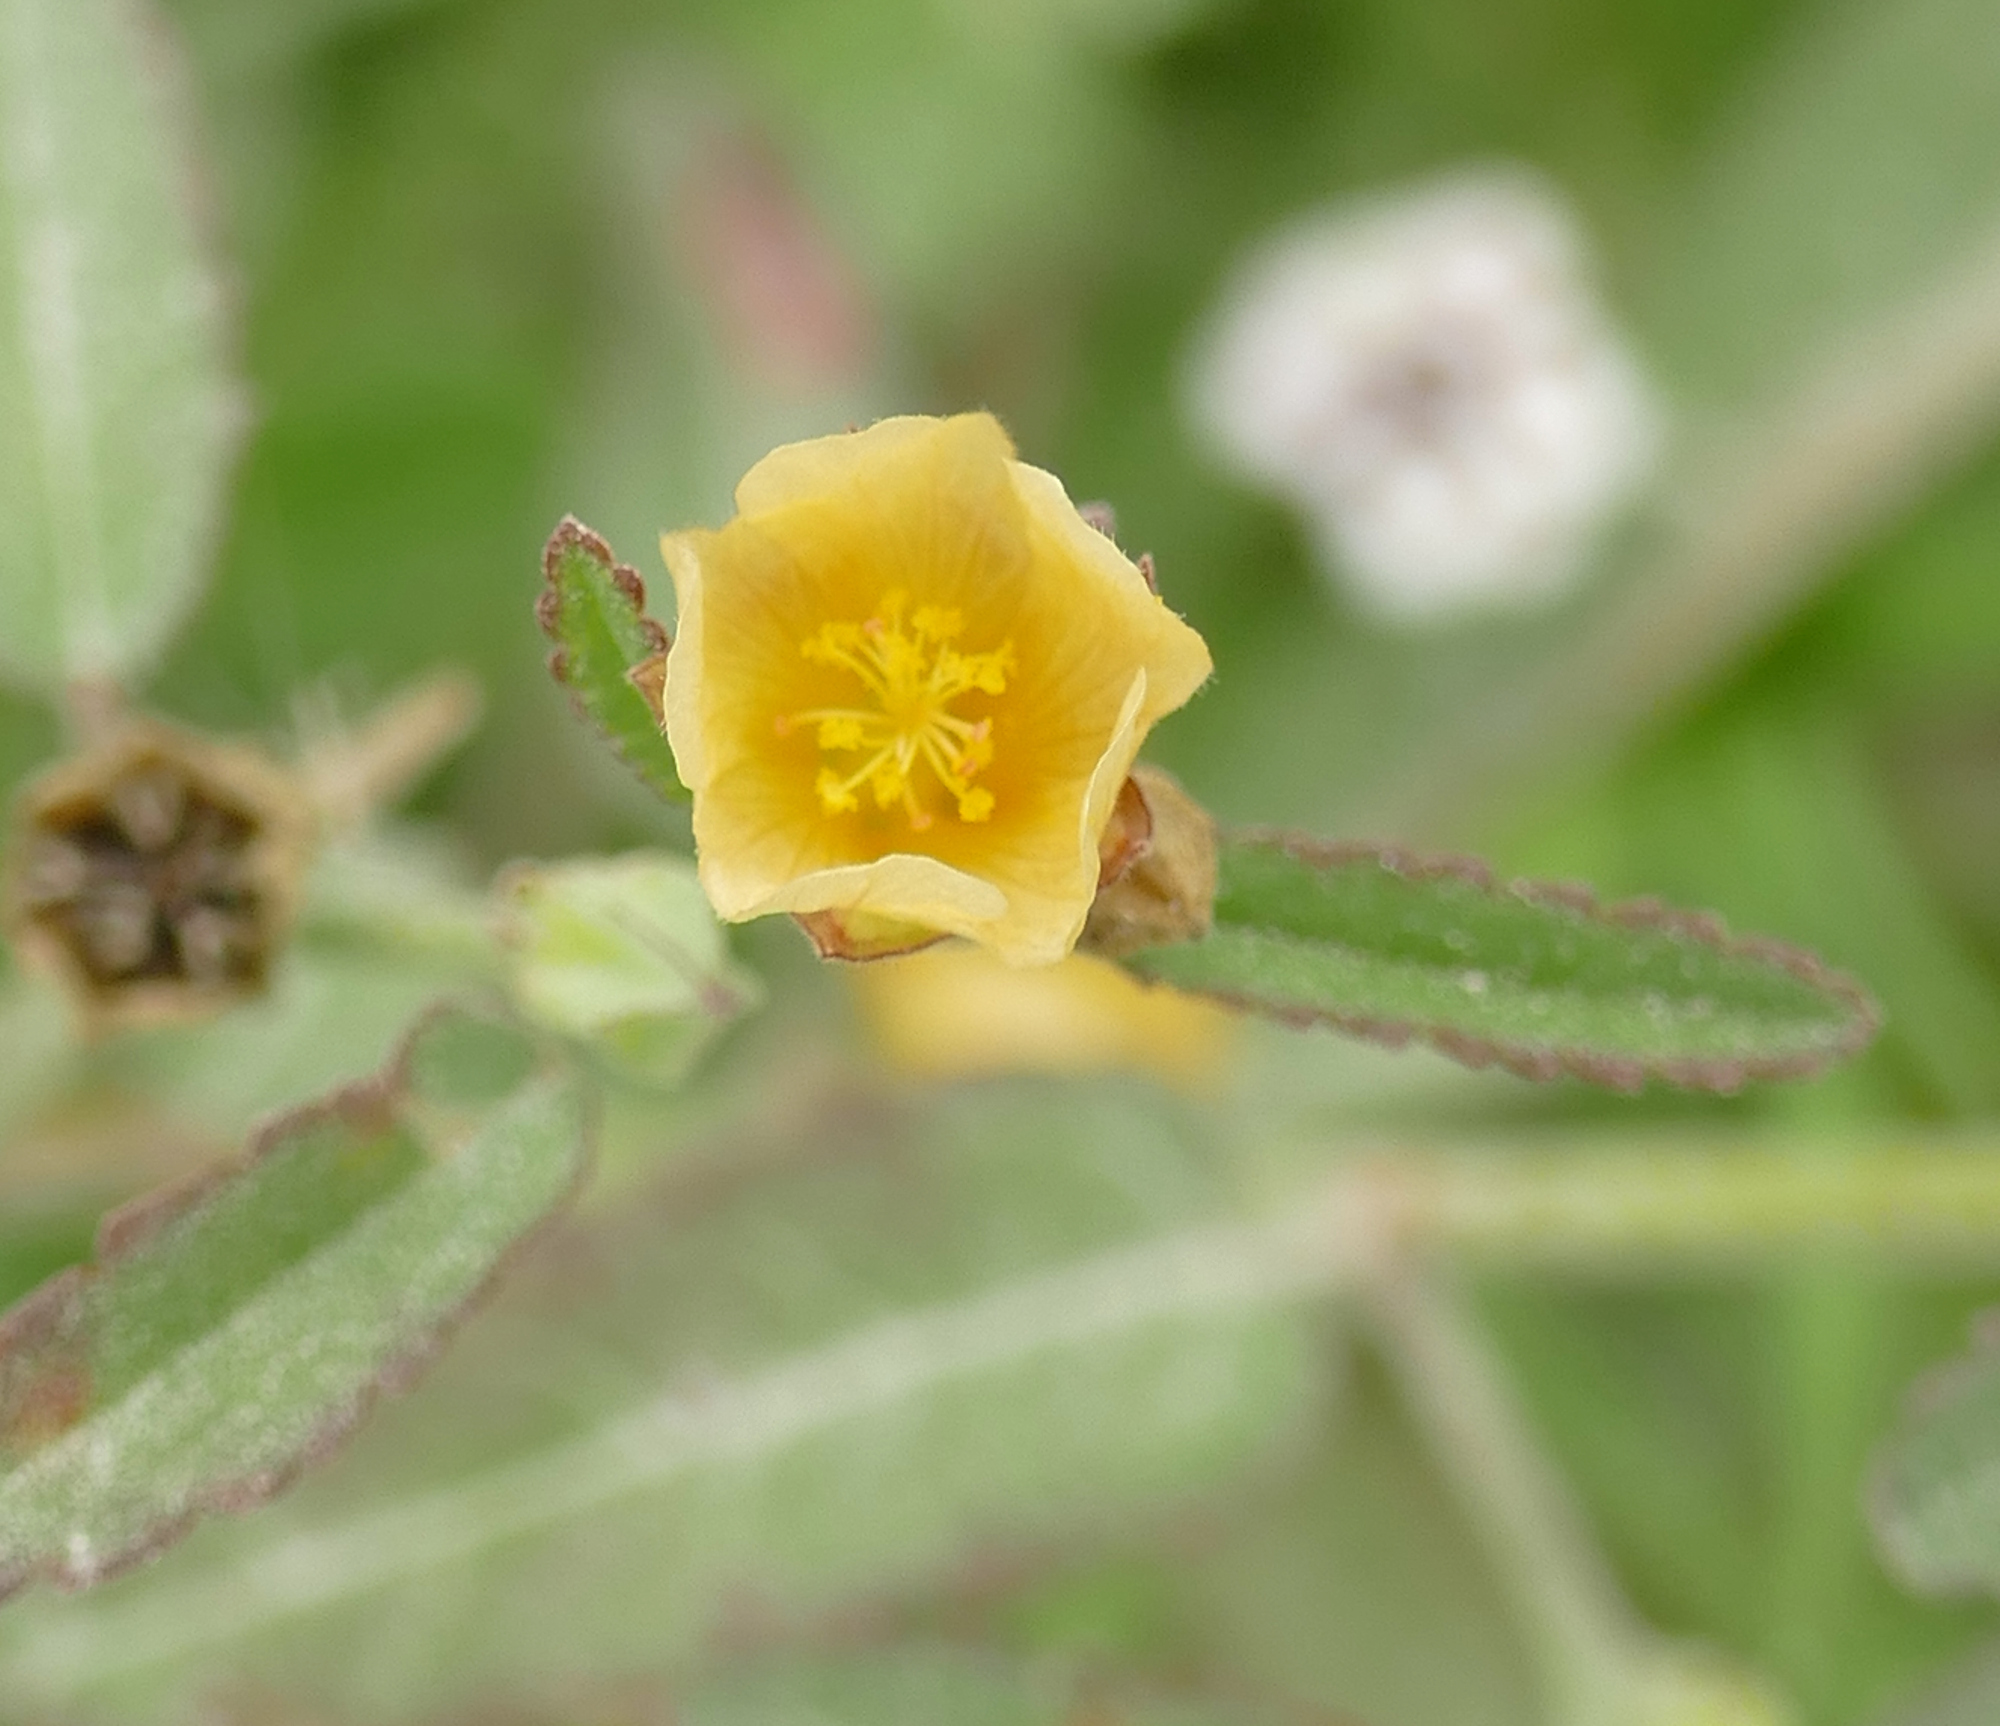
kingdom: Plantae
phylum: Tracheophyta
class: Magnoliopsida
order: Malvales
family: Malvaceae
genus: Sida
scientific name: Sida spinosa
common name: Prickly fanpetals
